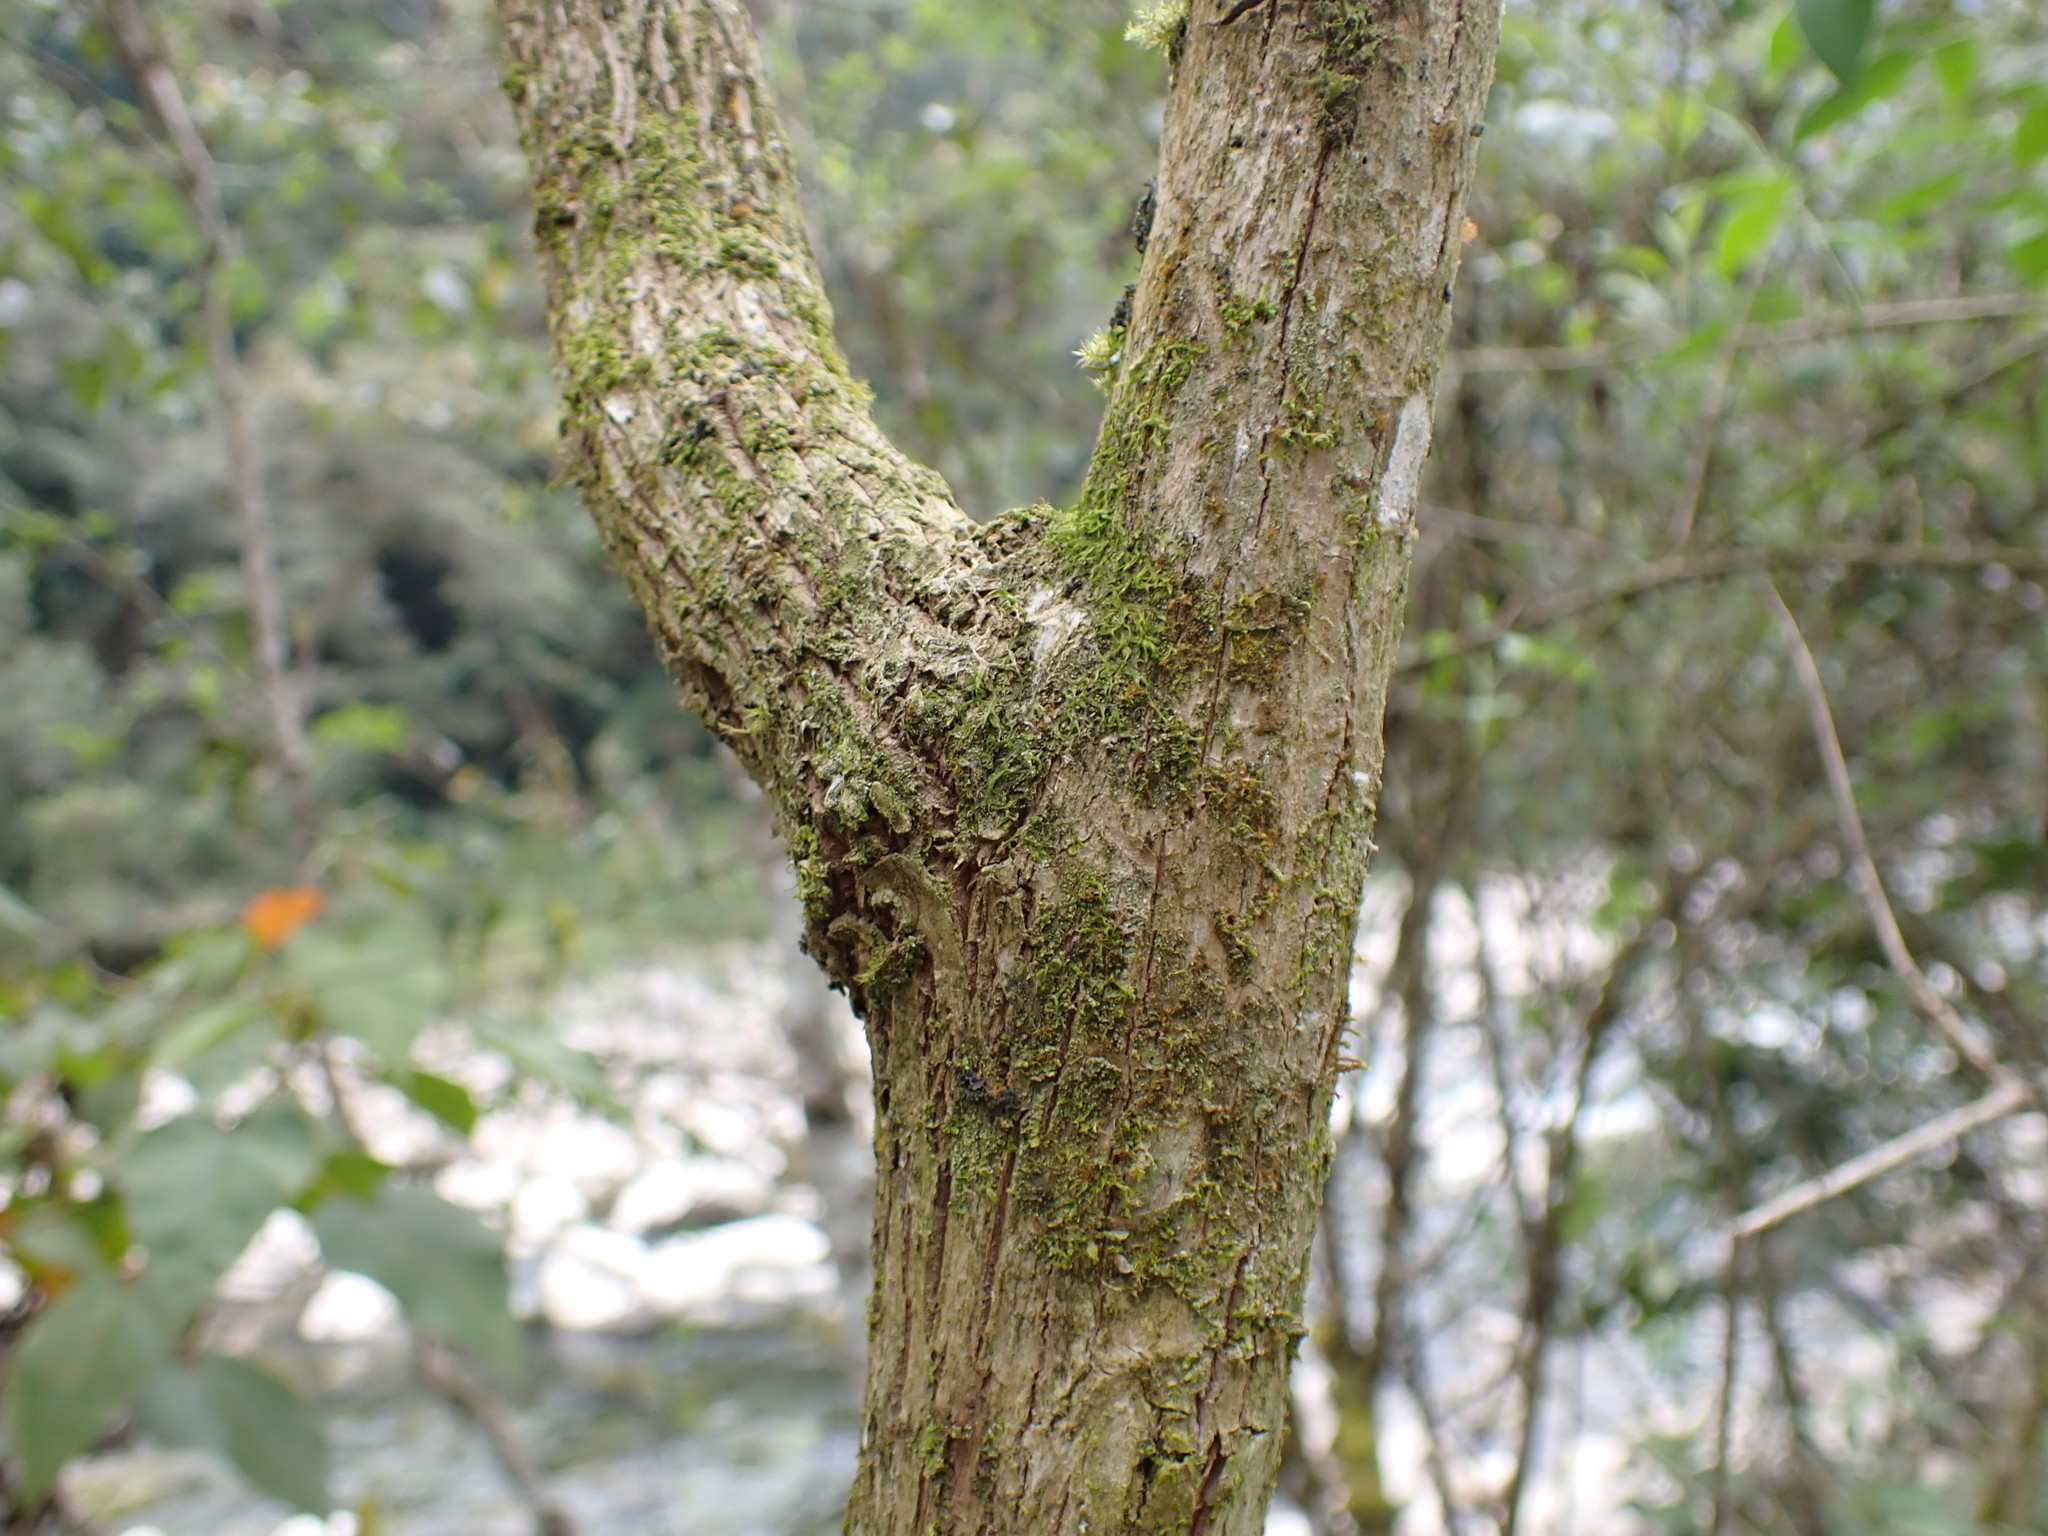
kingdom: Plantae
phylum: Tracheophyta
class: Magnoliopsida
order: Ranunculales
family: Papaveraceae
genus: Bocconia
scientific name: Bocconia frutescens
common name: Tree poppy
